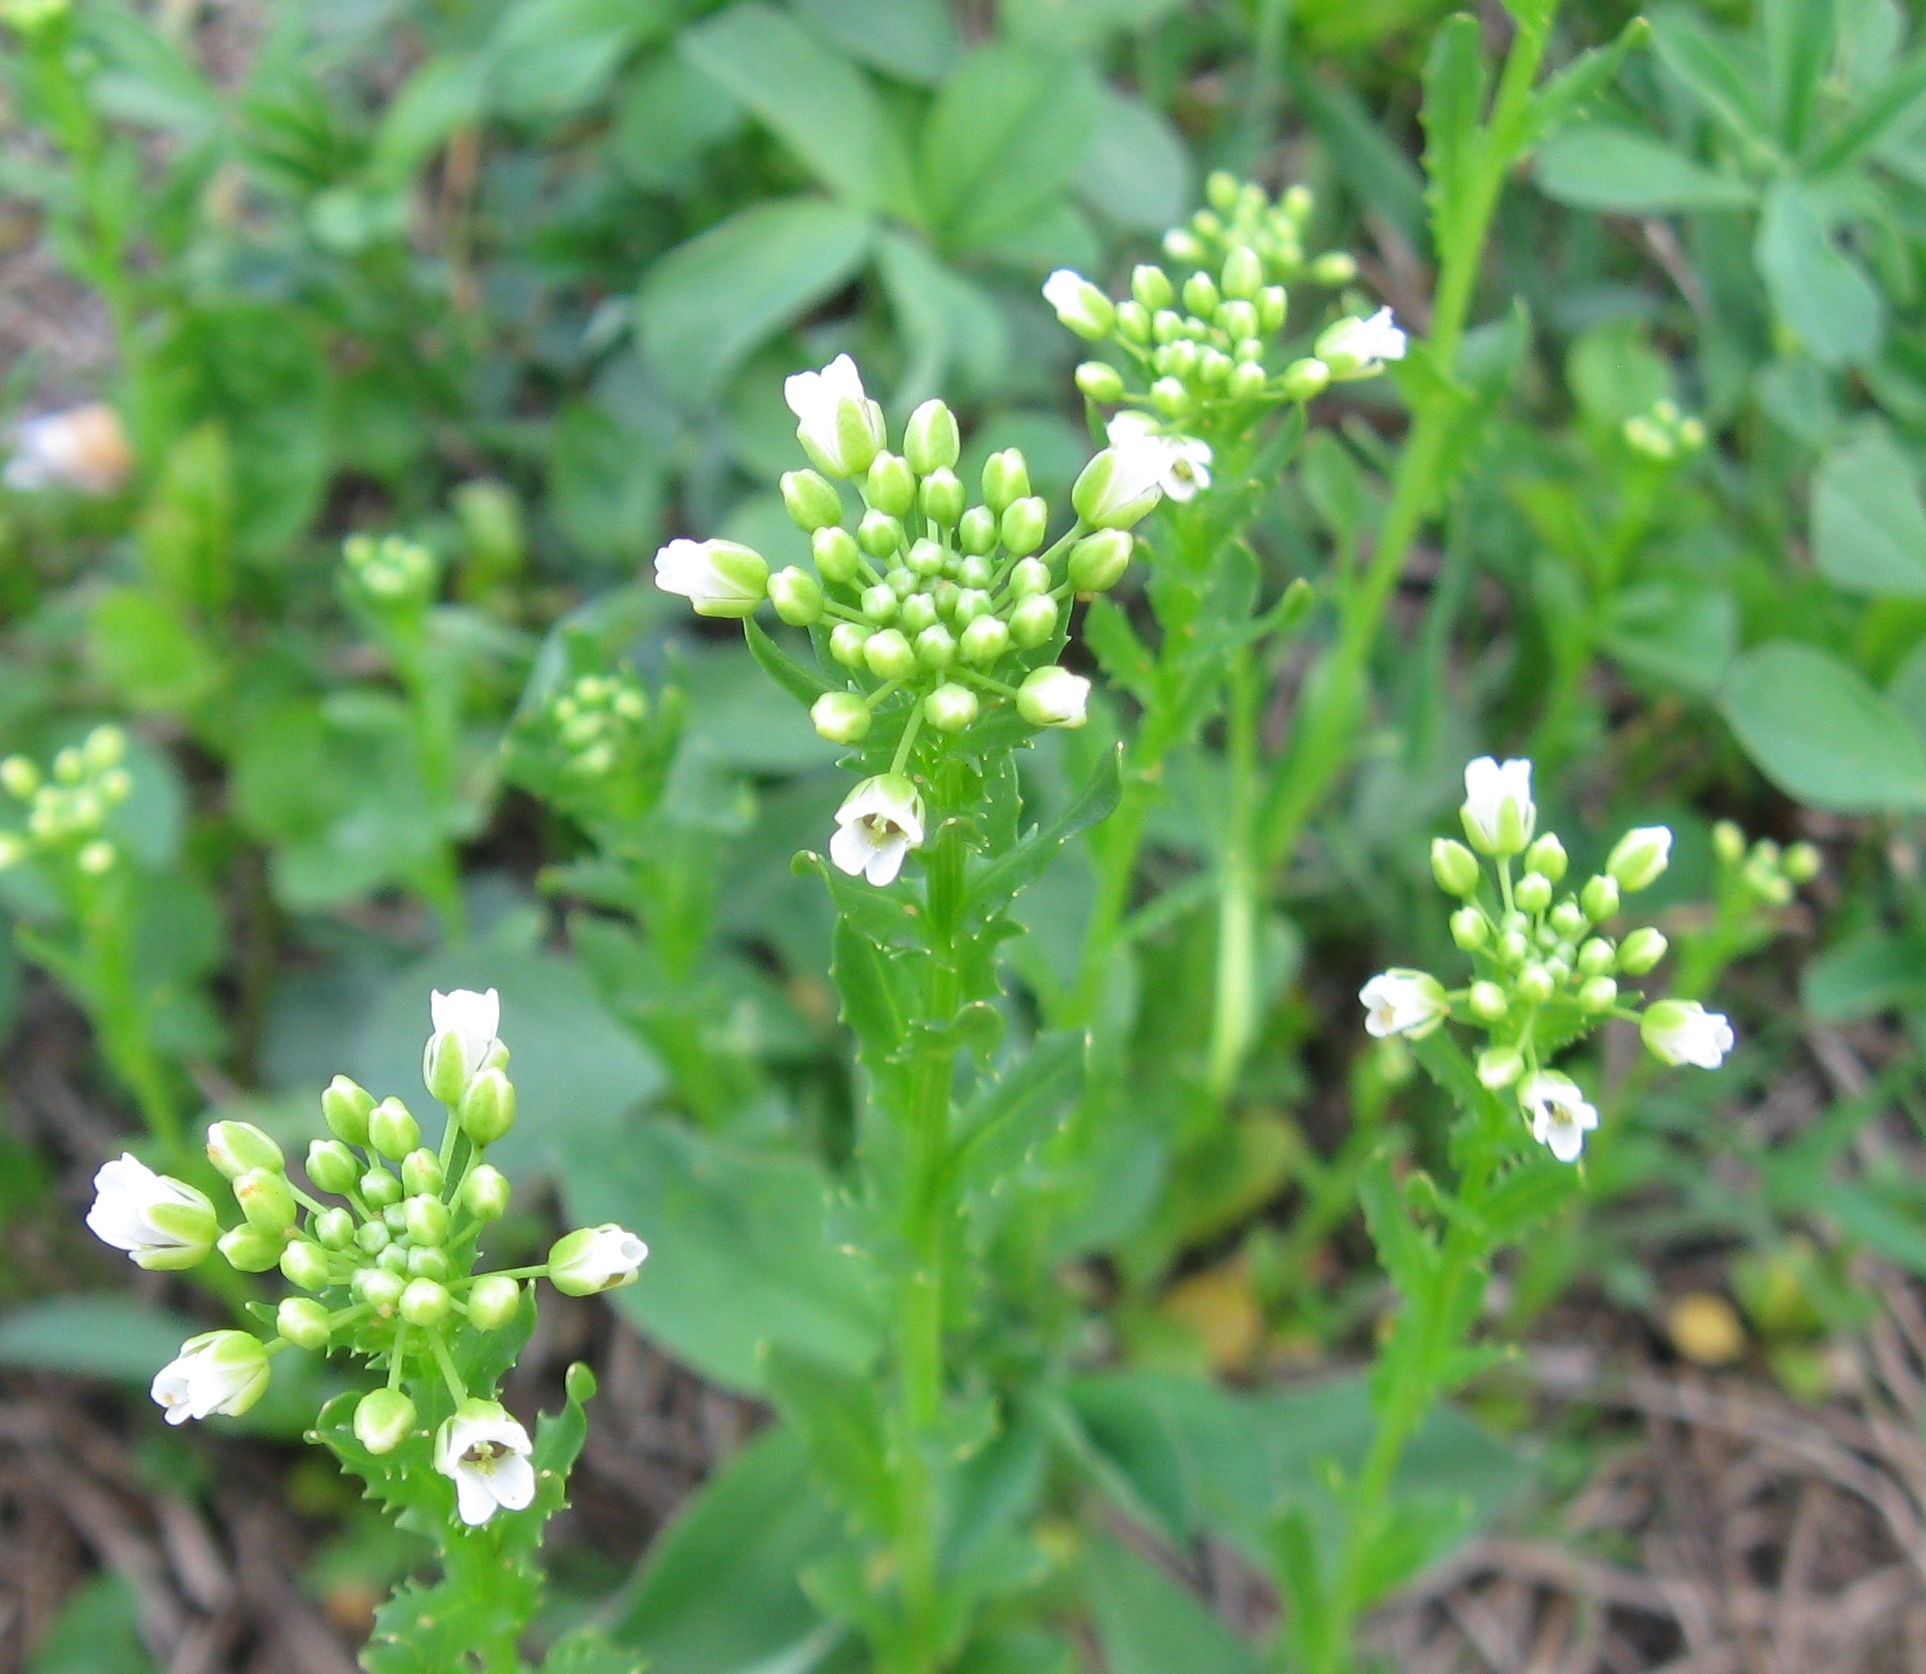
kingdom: Plantae
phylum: Tracheophyta
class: Magnoliopsida
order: Brassicales
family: Brassicaceae
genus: Thlaspi
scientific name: Thlaspi arvense
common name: Field pennycress
